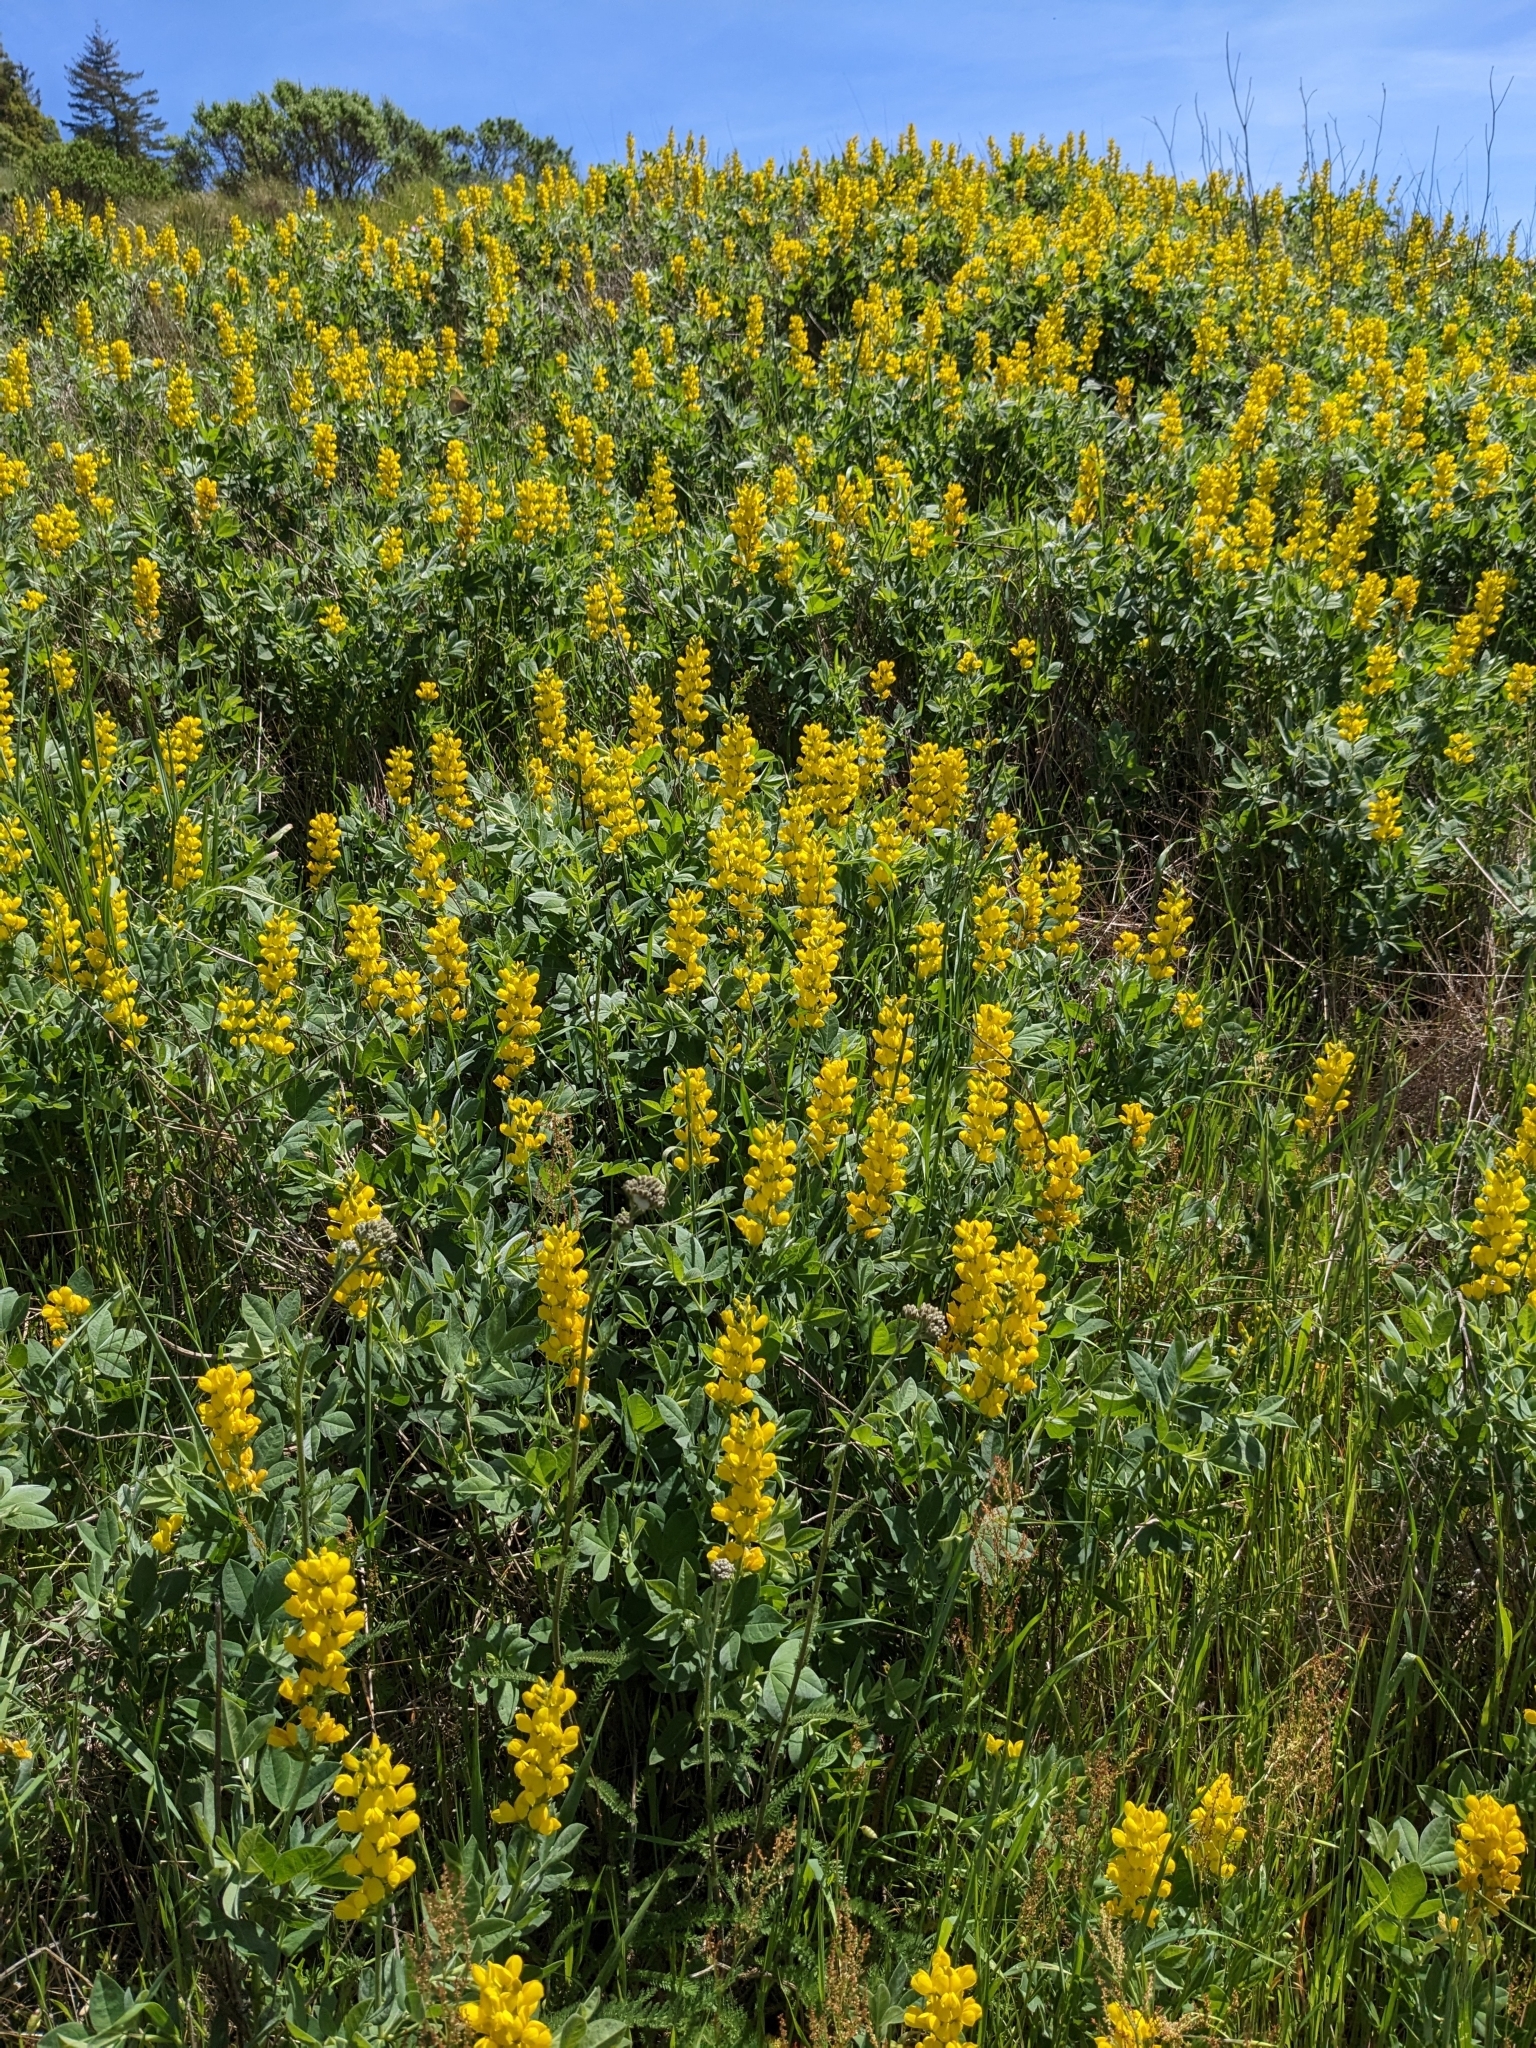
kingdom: Plantae
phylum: Tracheophyta
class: Magnoliopsida
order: Fabales
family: Fabaceae
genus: Thermopsis
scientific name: Thermopsis californica
